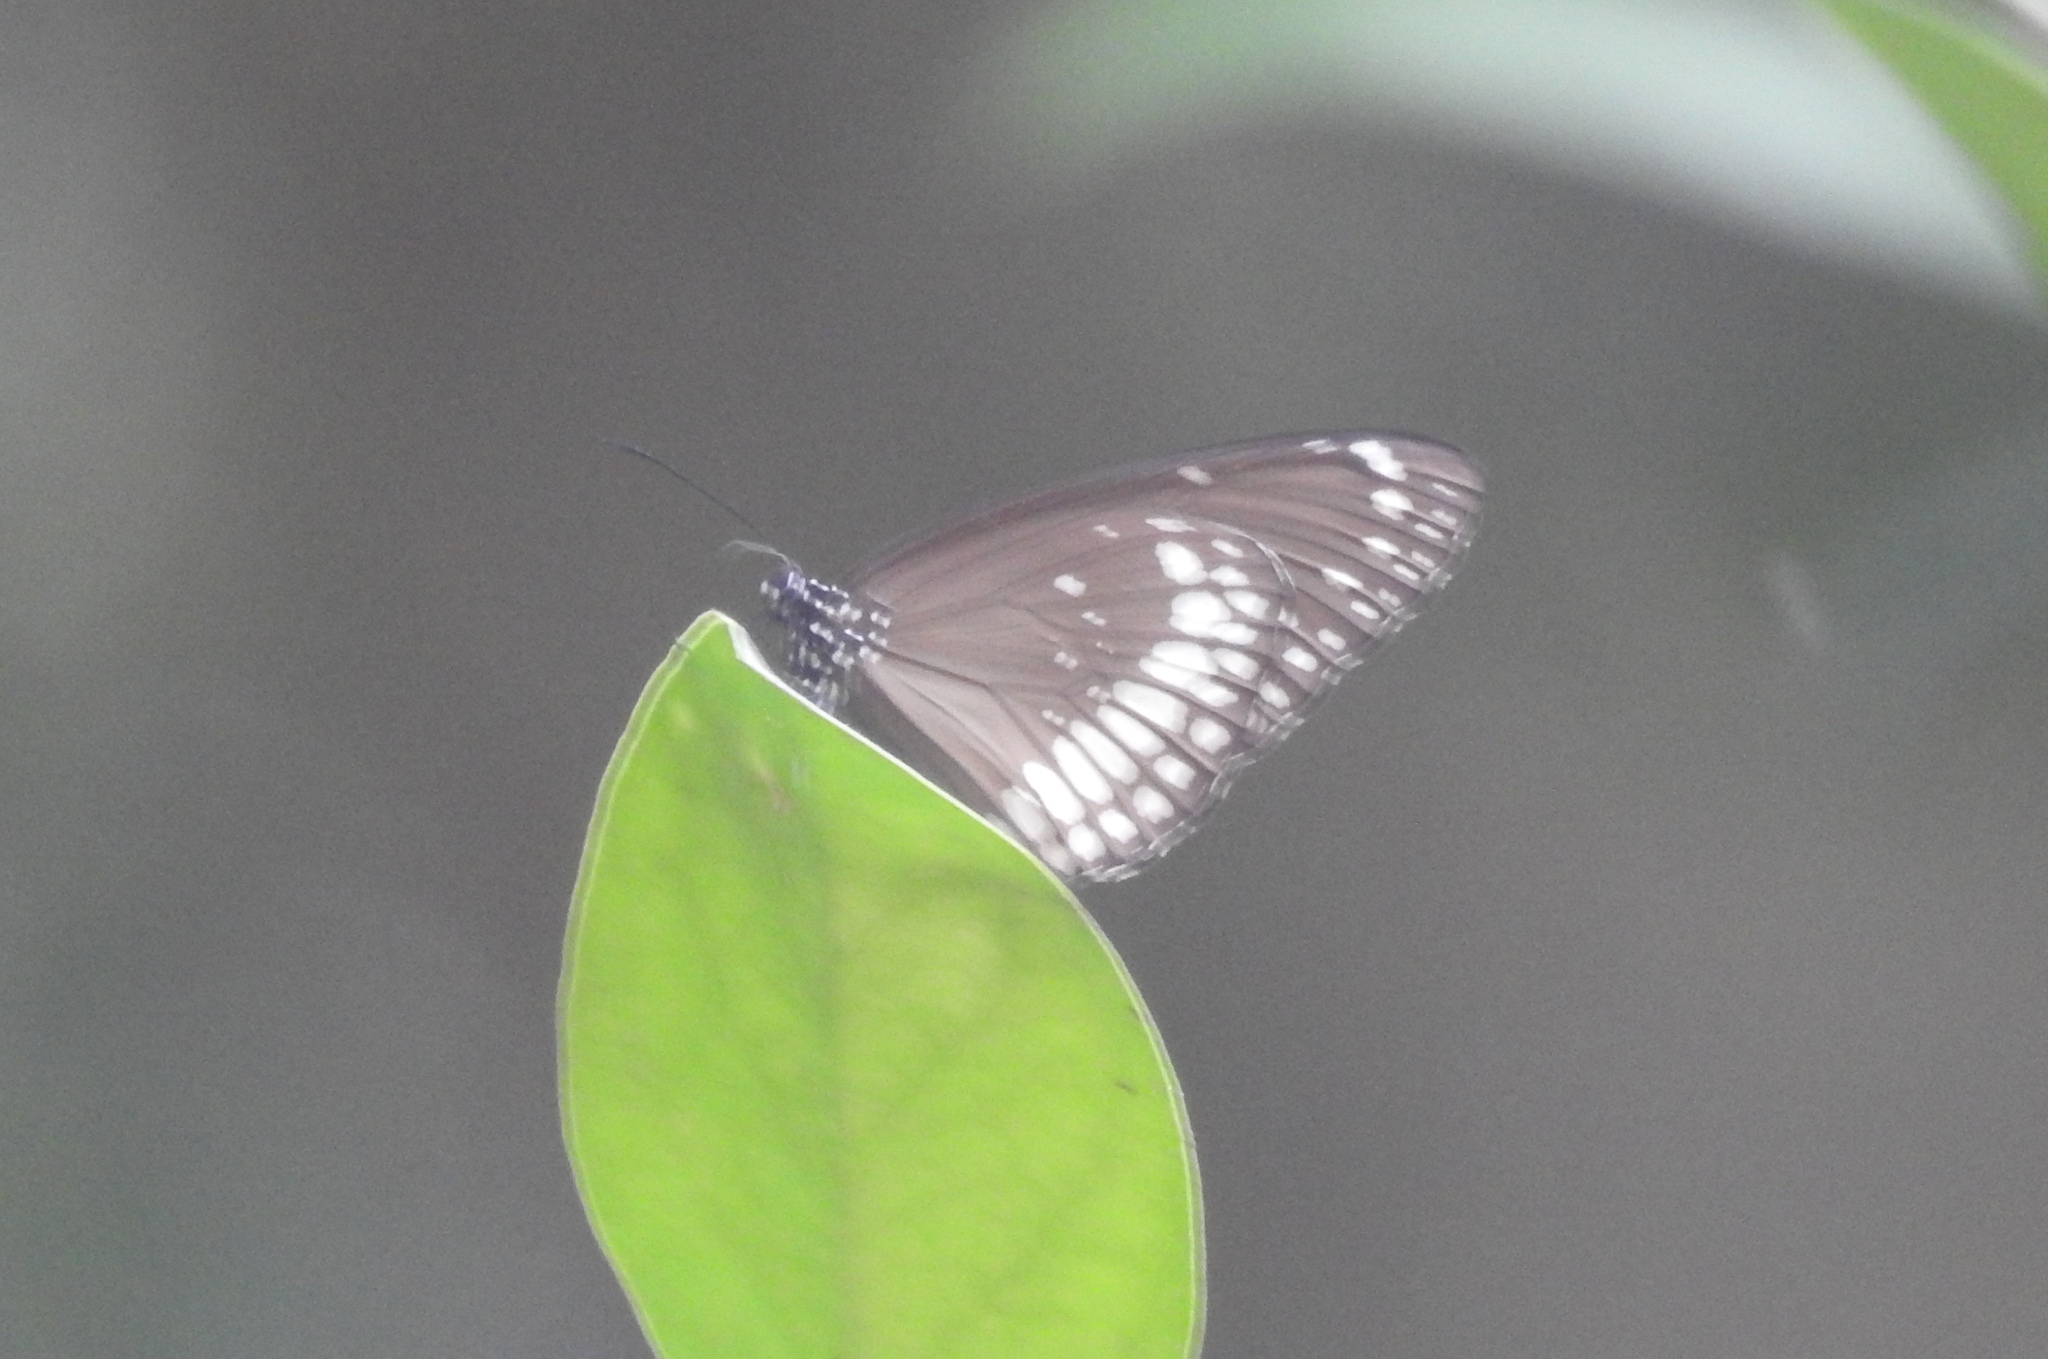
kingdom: Animalia
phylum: Arthropoda
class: Insecta
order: Lepidoptera
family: Nymphalidae
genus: Euploea
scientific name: Euploea core
